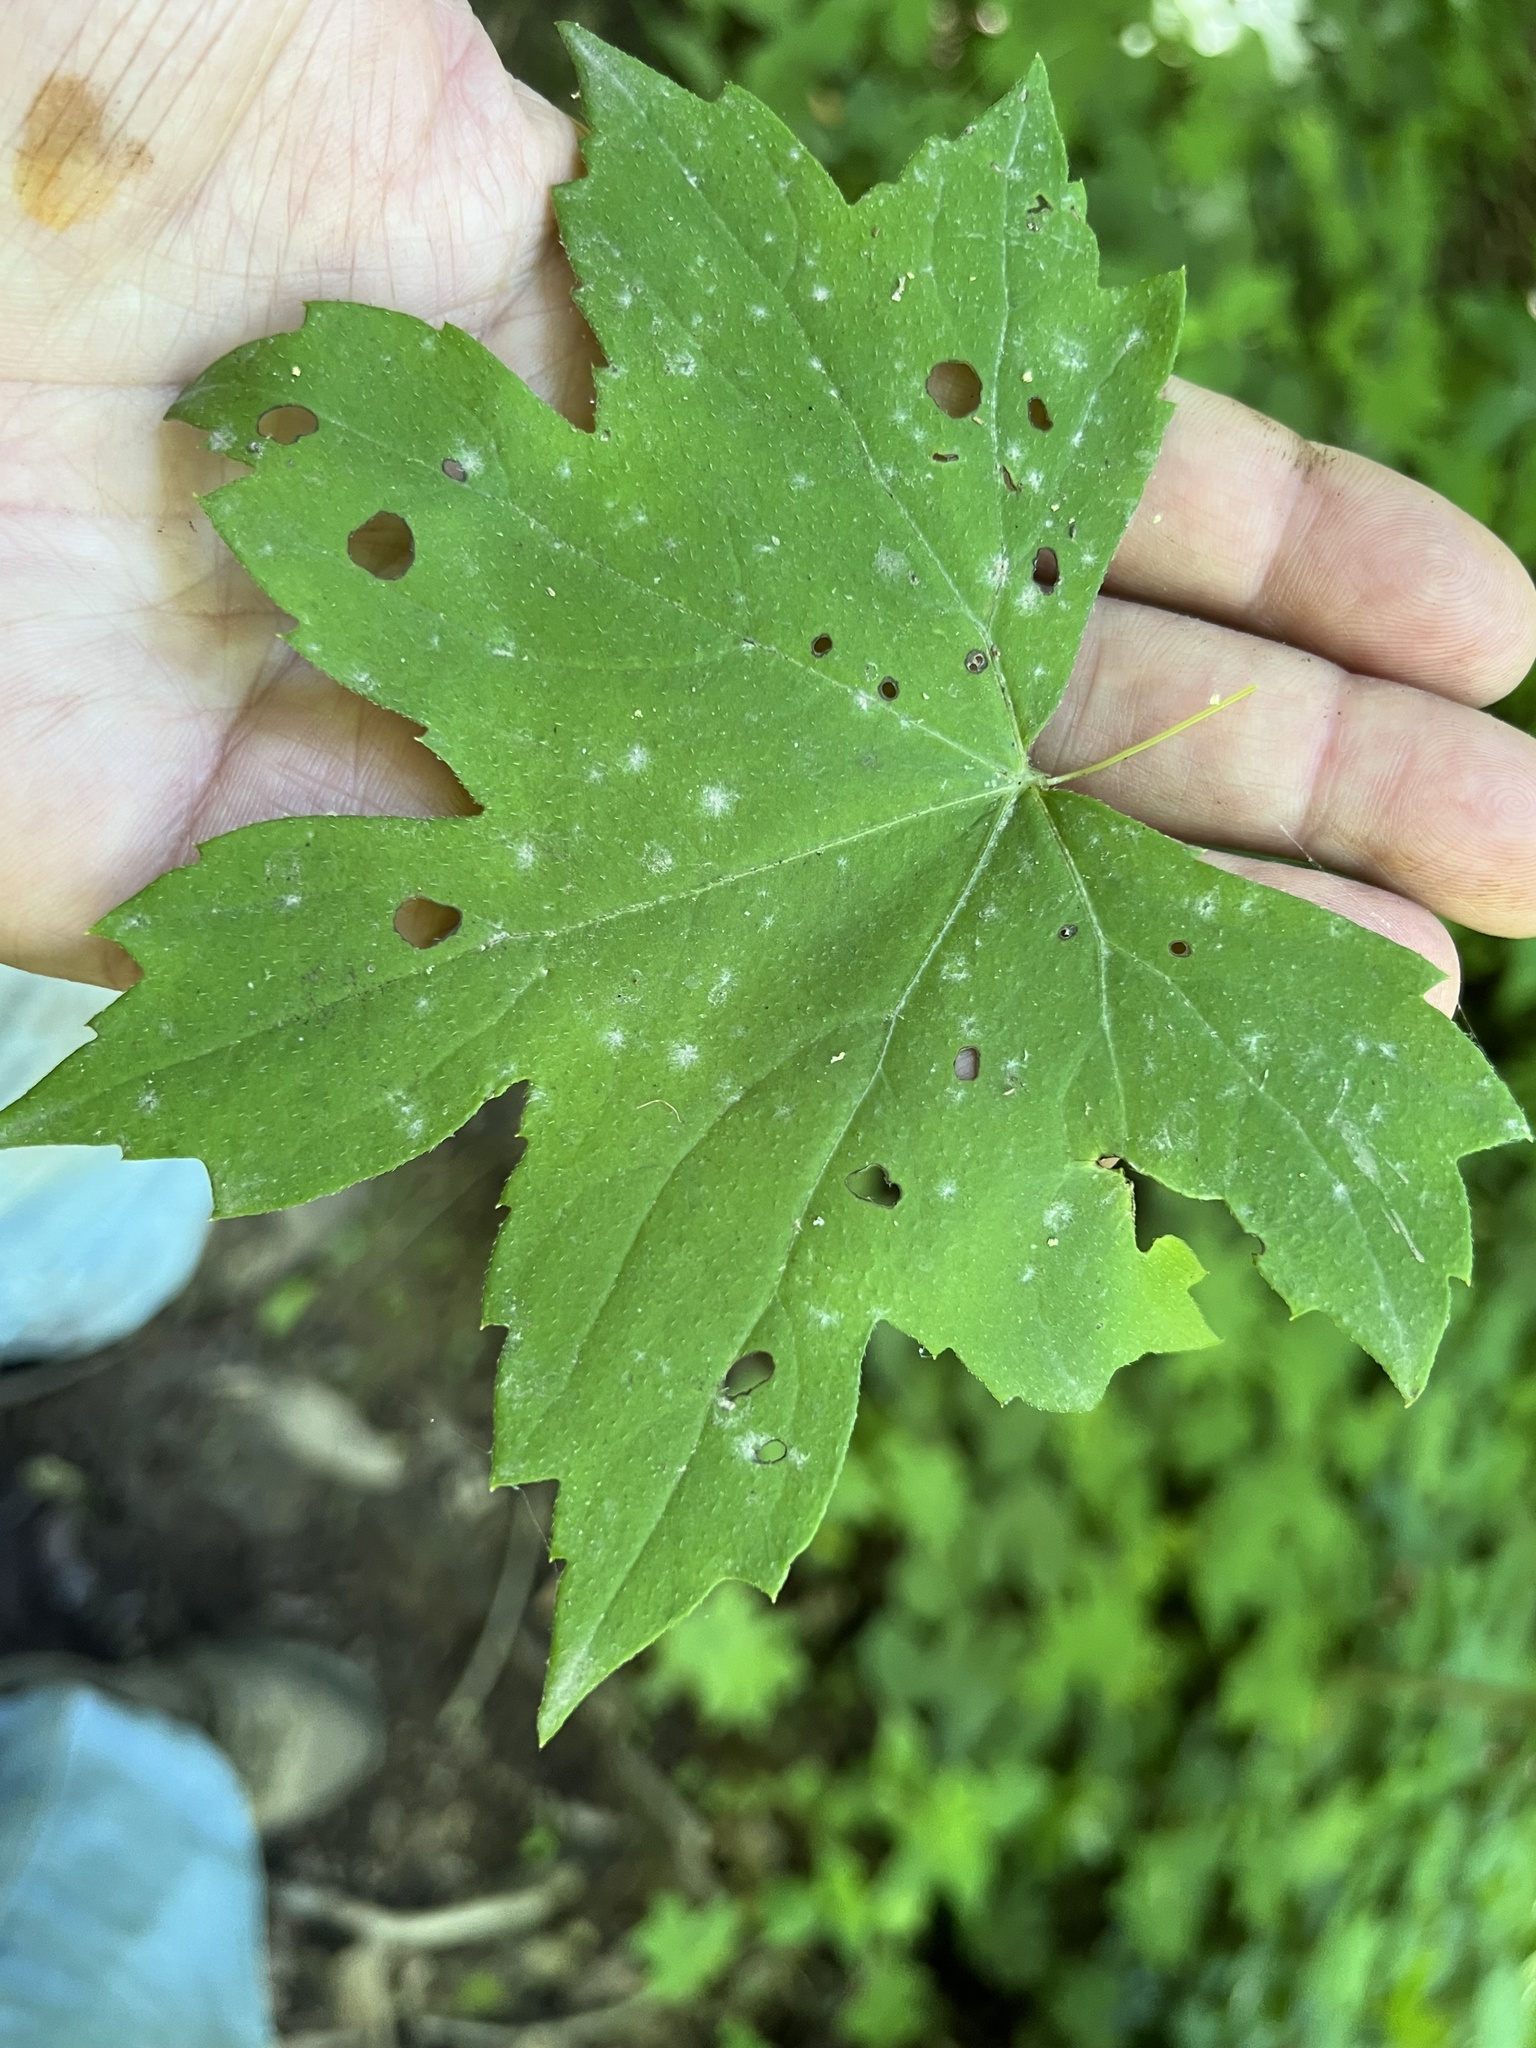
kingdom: Fungi
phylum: Ascomycota
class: Leotiomycetes
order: Helotiales
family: Erysiphaceae
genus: Golovinomyces
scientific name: Golovinomyces hydrophyllacearum
